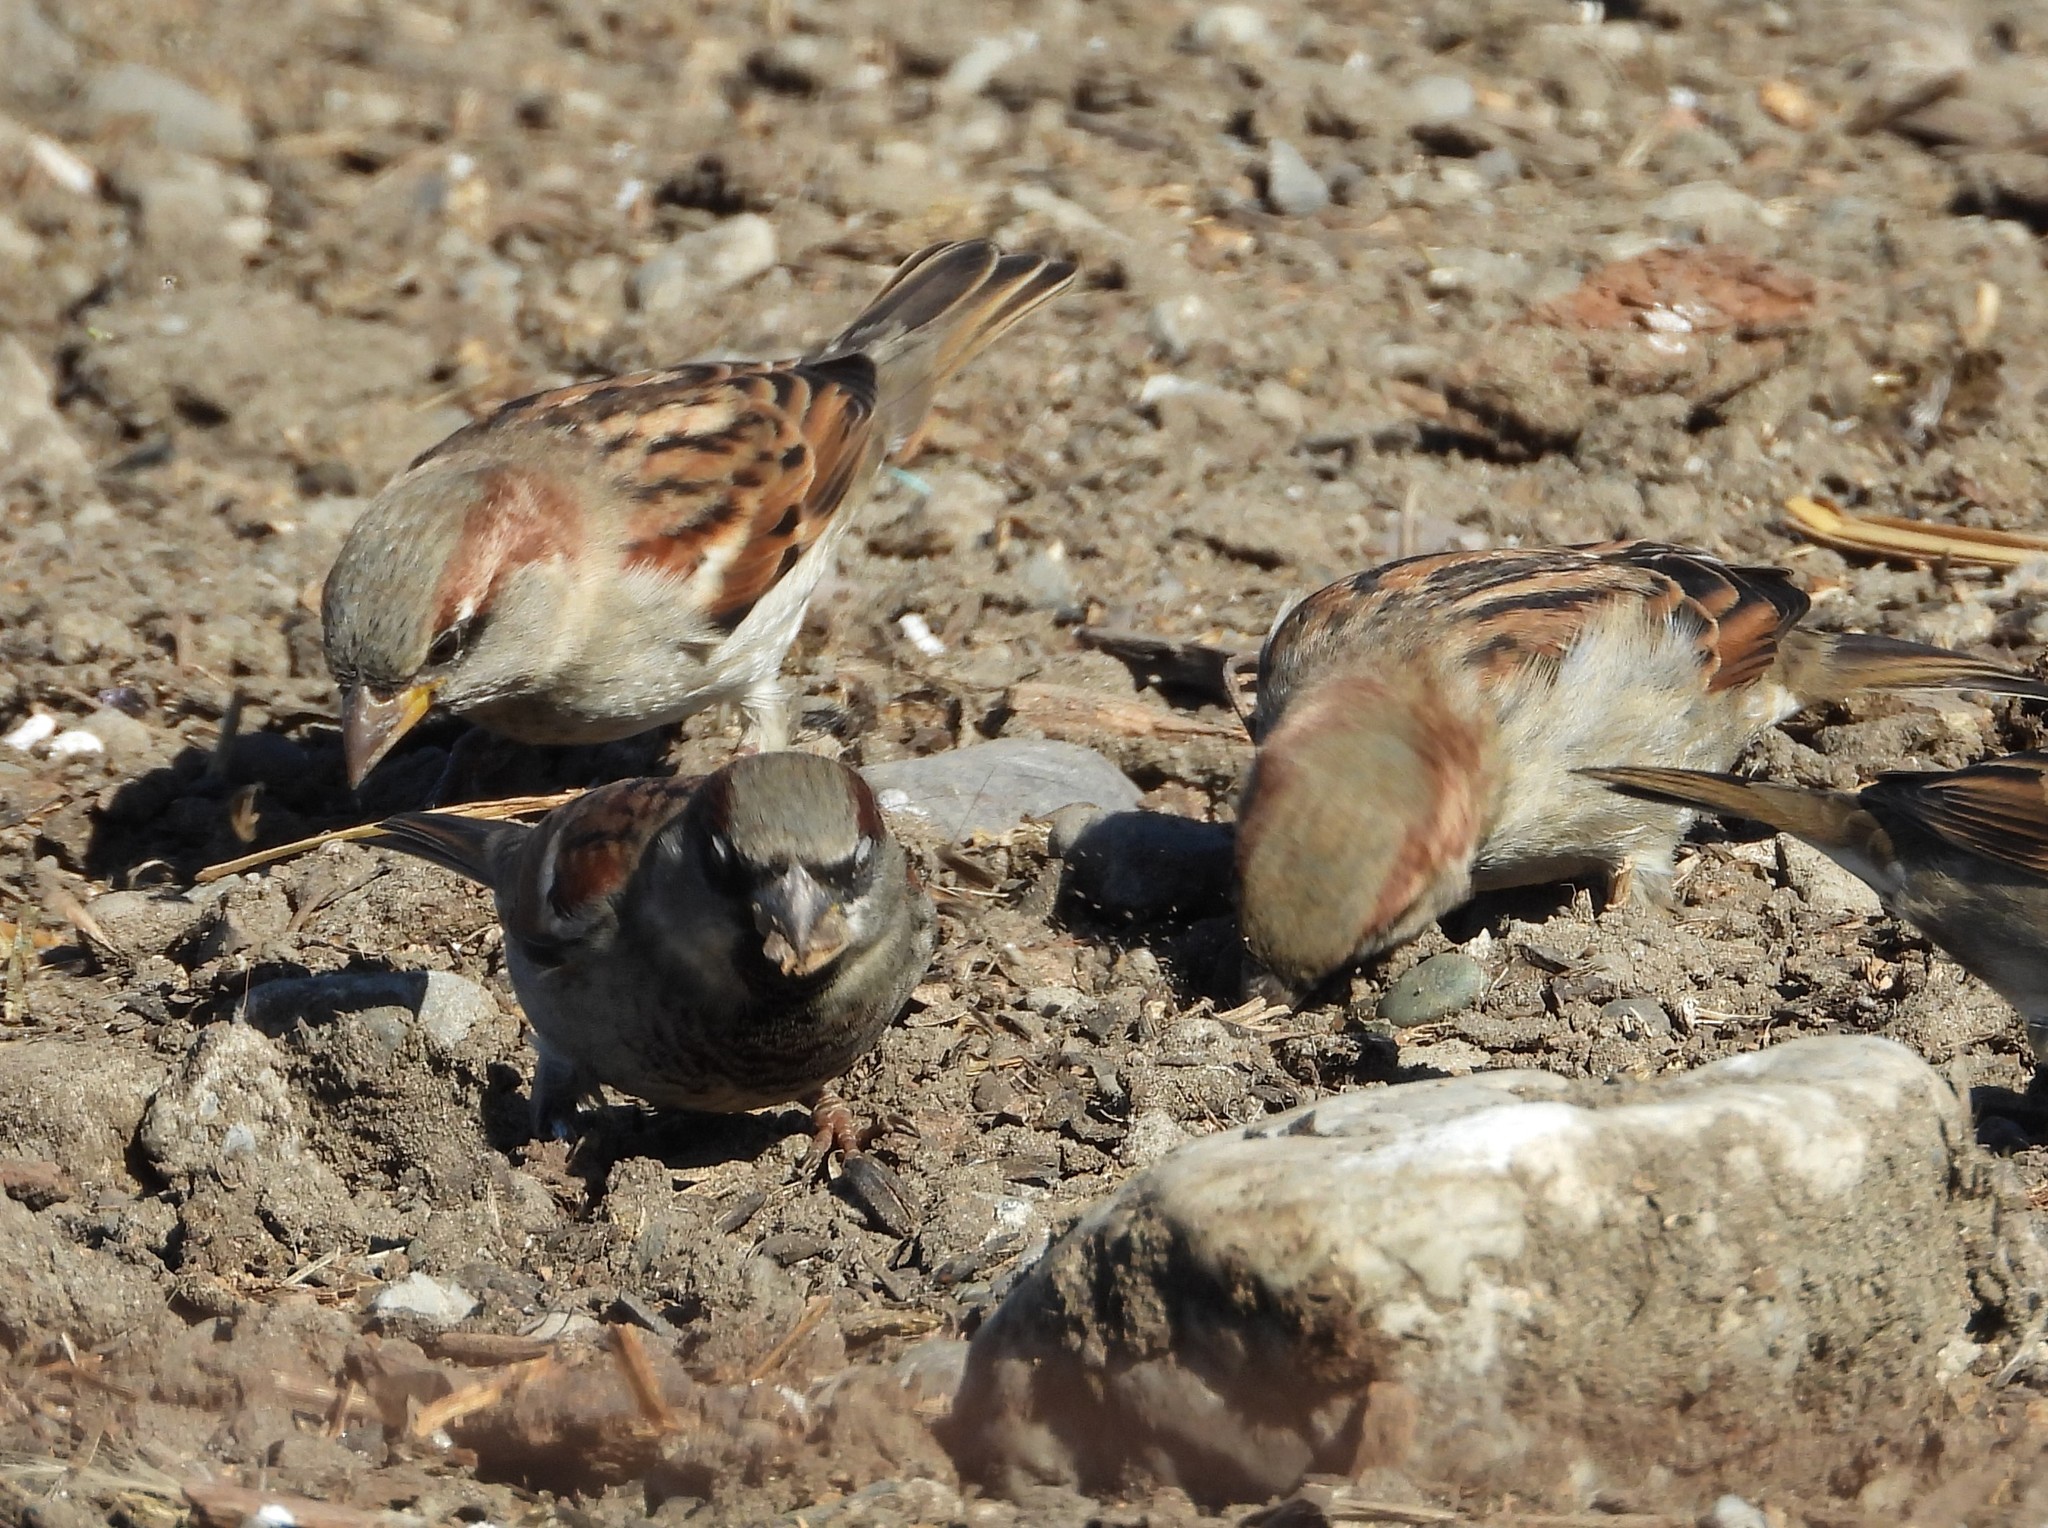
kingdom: Animalia
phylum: Chordata
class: Aves
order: Passeriformes
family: Passeridae
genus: Passer
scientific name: Passer domesticus
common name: House sparrow
